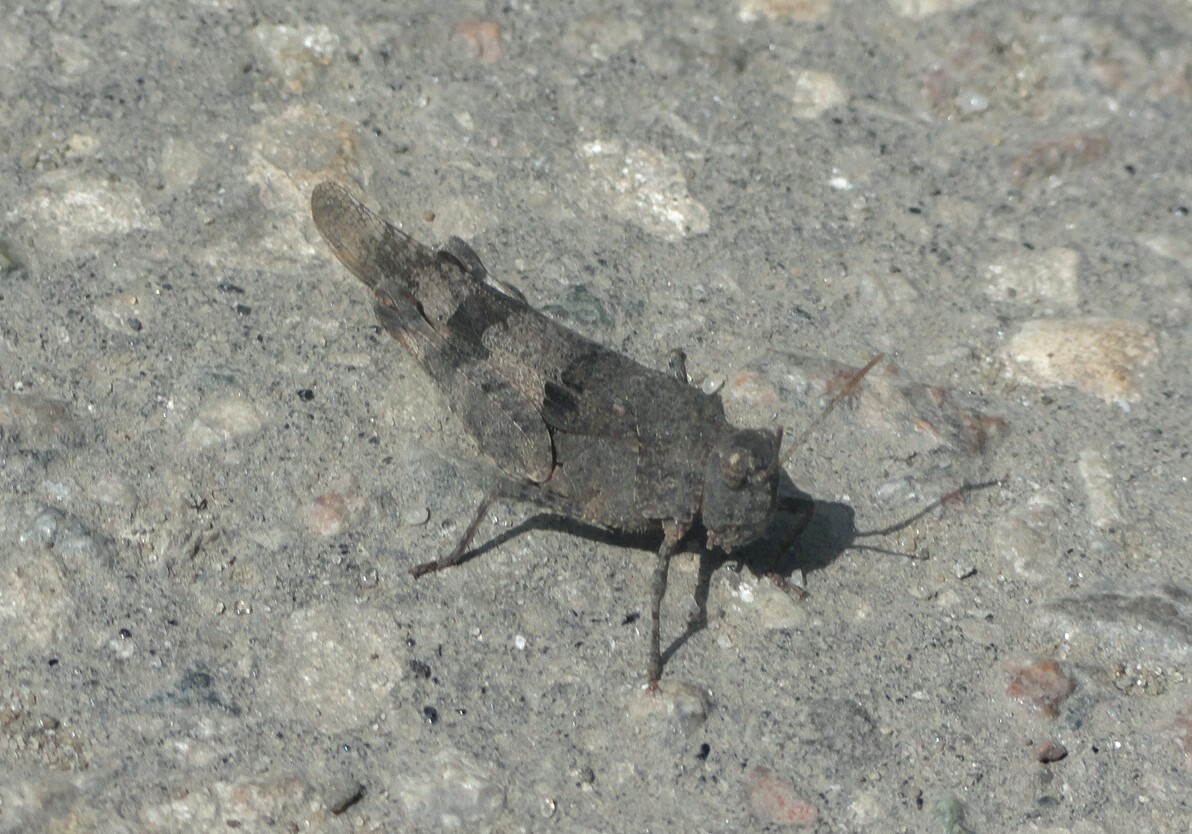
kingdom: Animalia
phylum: Arthropoda
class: Insecta
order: Orthoptera
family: Acrididae
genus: Oedipoda
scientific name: Oedipoda caerulescens
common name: Blue-winged grasshopper
